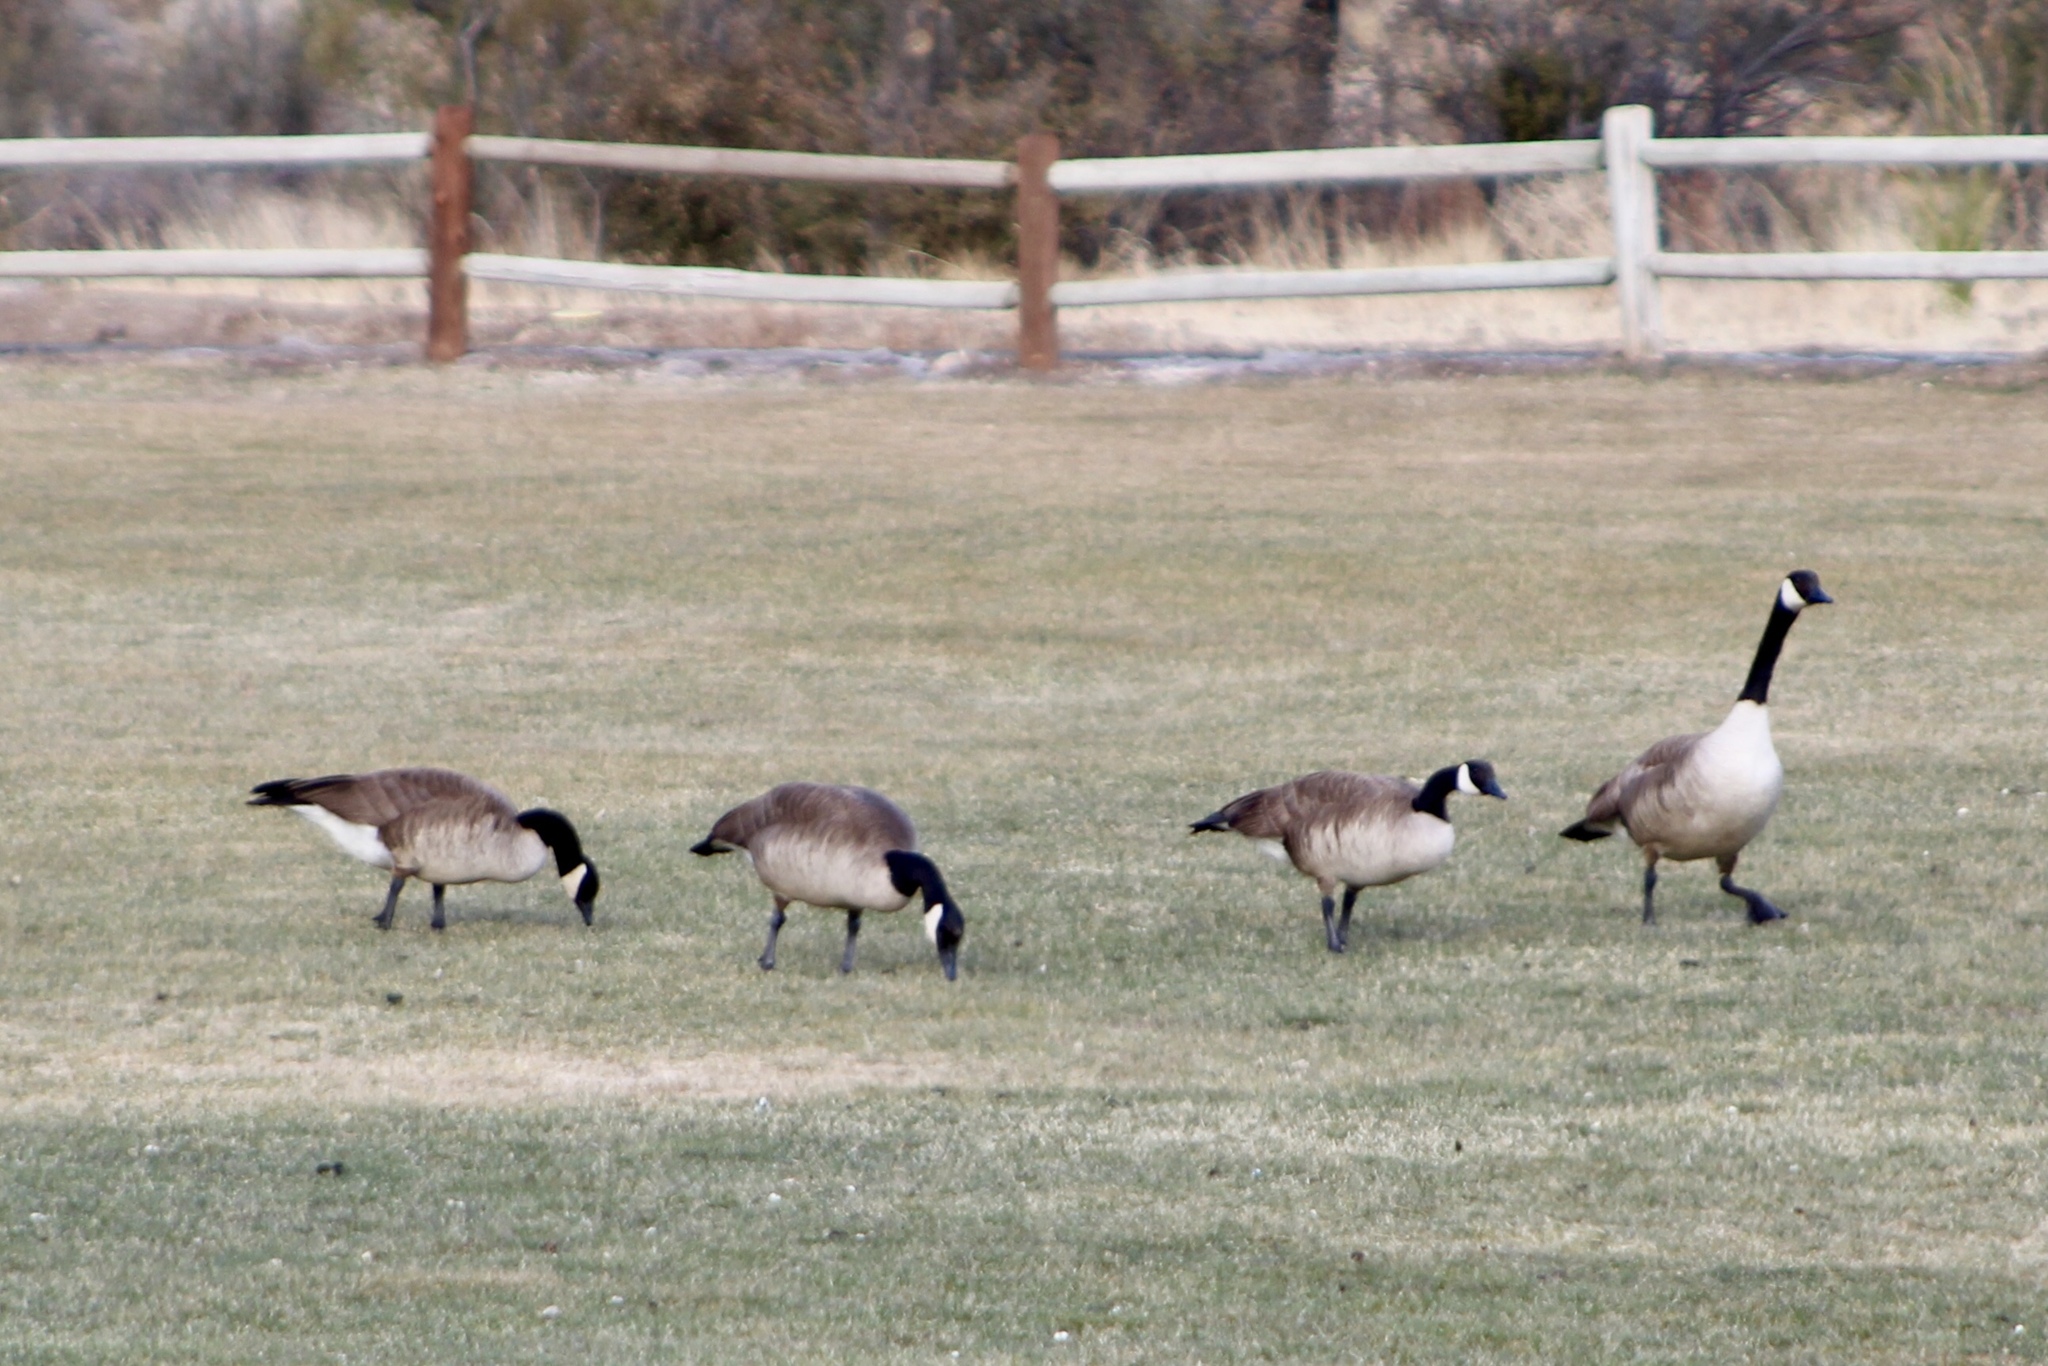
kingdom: Animalia
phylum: Chordata
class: Aves
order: Anseriformes
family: Anatidae
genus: Branta
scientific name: Branta canadensis
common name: Canada goose
